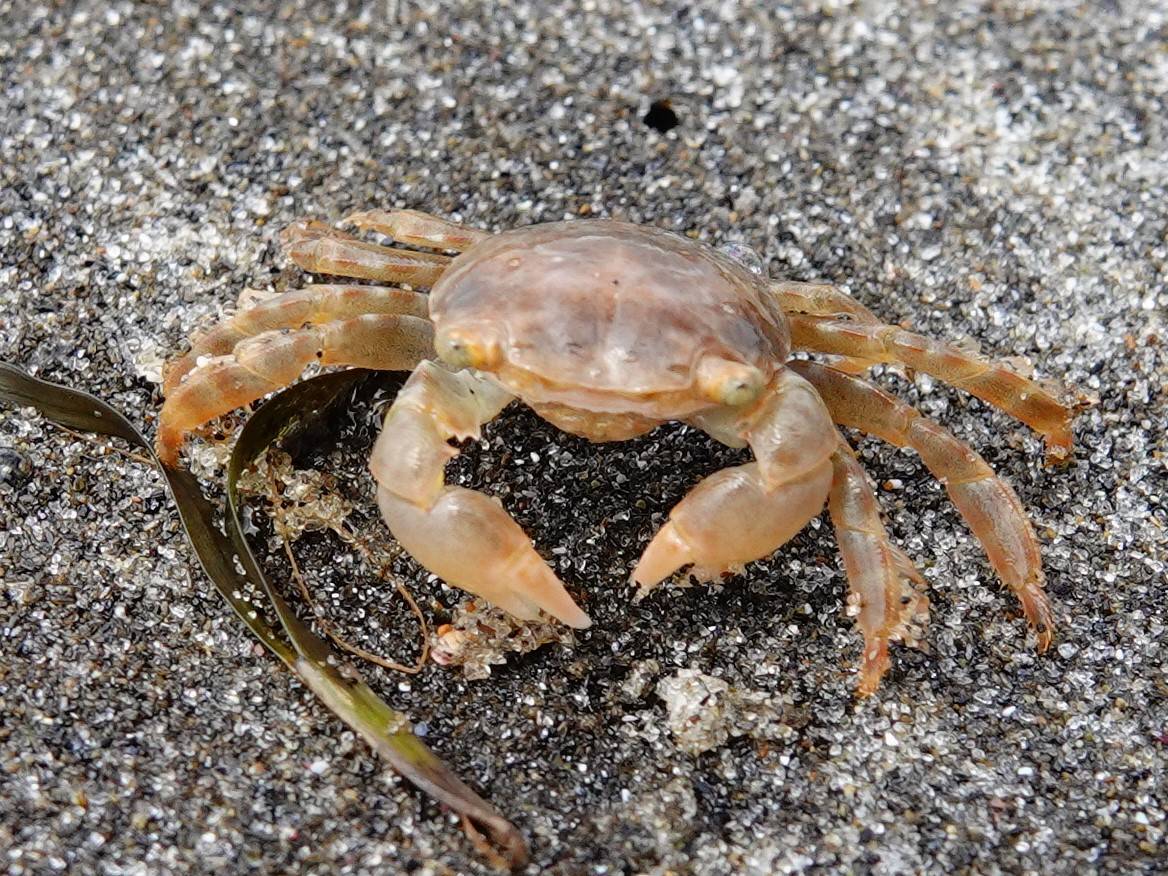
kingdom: Animalia
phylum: Arthropoda
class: Malacostraca
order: Decapoda
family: Grapsidae
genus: Planes
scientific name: Planes minutus
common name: Gulf weed crab
